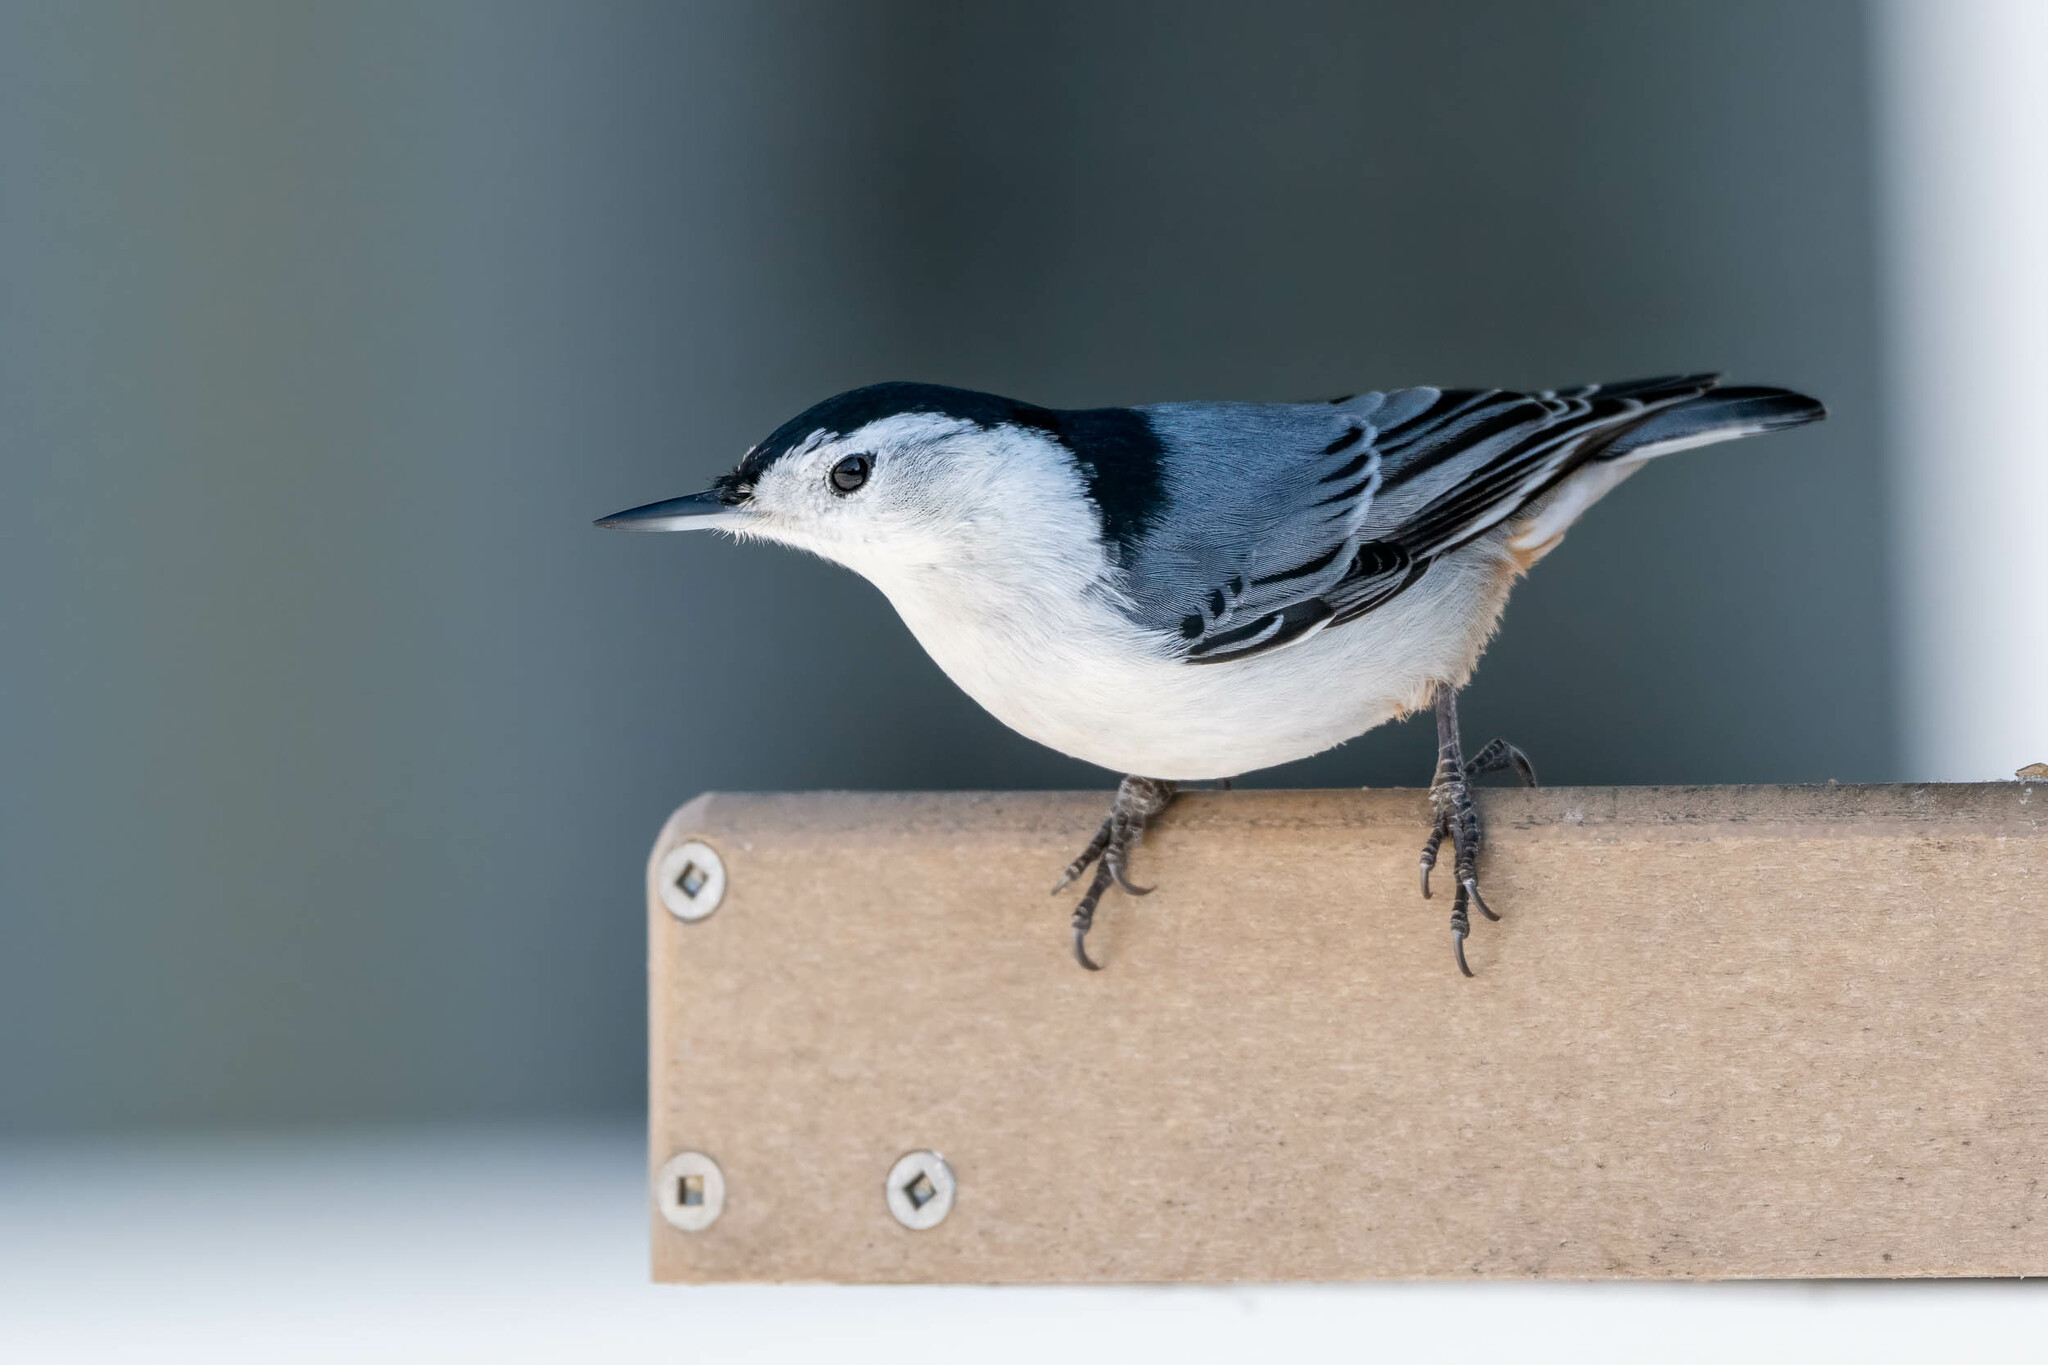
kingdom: Animalia
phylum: Chordata
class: Aves
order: Passeriformes
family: Sittidae
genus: Sitta
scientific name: Sitta carolinensis
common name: White-breasted nuthatch
